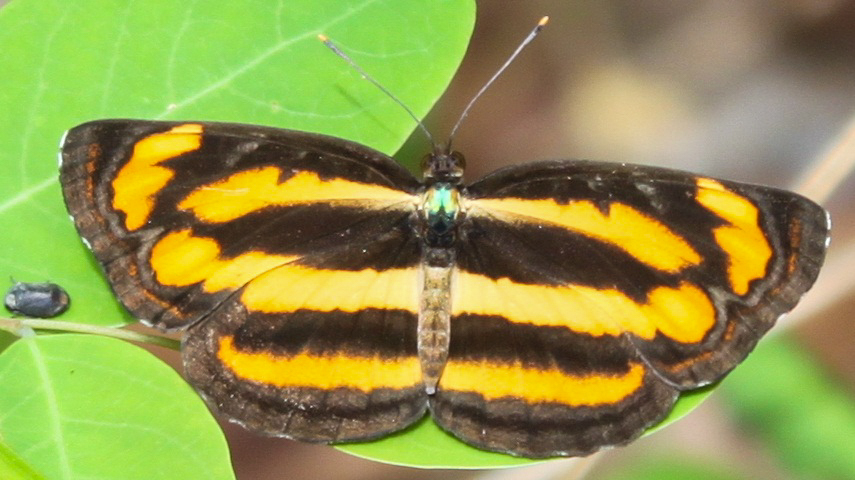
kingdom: Animalia
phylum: Arthropoda
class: Insecta
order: Lepidoptera
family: Nymphalidae
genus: Pantoporia
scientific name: Pantoporia hordonia
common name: Common lascar
